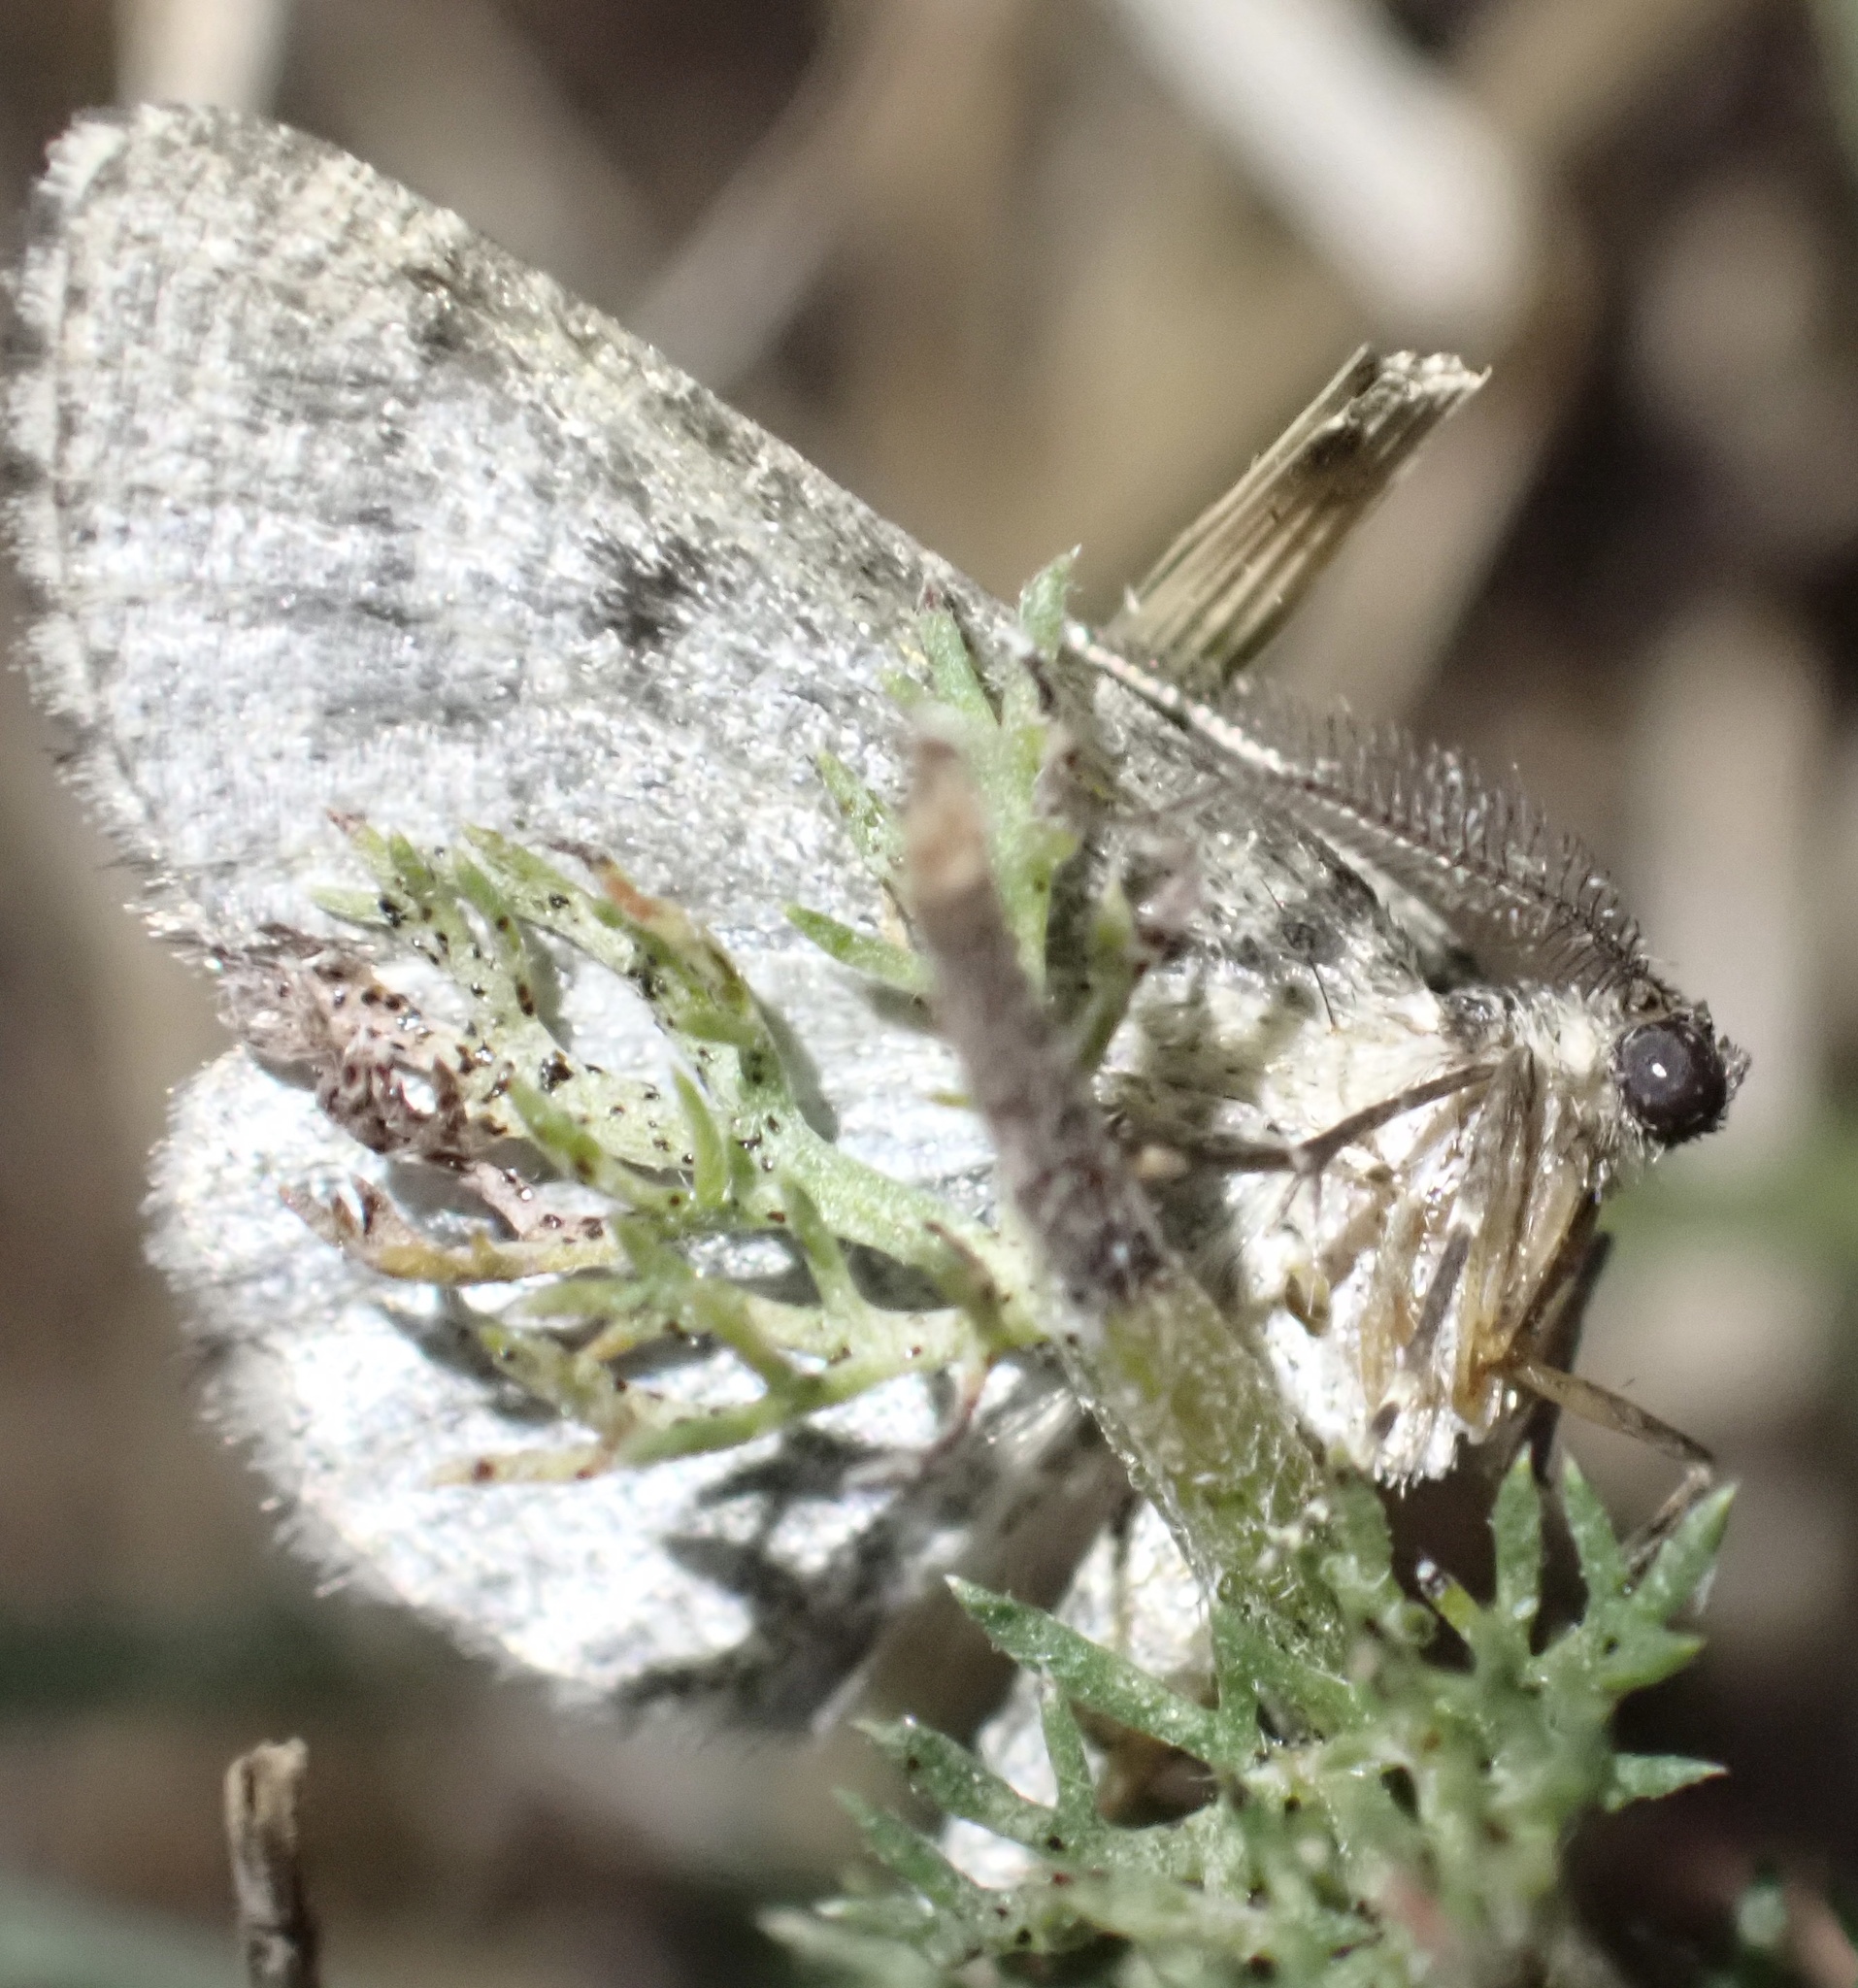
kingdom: Animalia
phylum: Arthropoda
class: Insecta
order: Lepidoptera
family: Geometridae
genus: Cleorodes
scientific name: Cleorodes lichenaria
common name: Brussels lace
